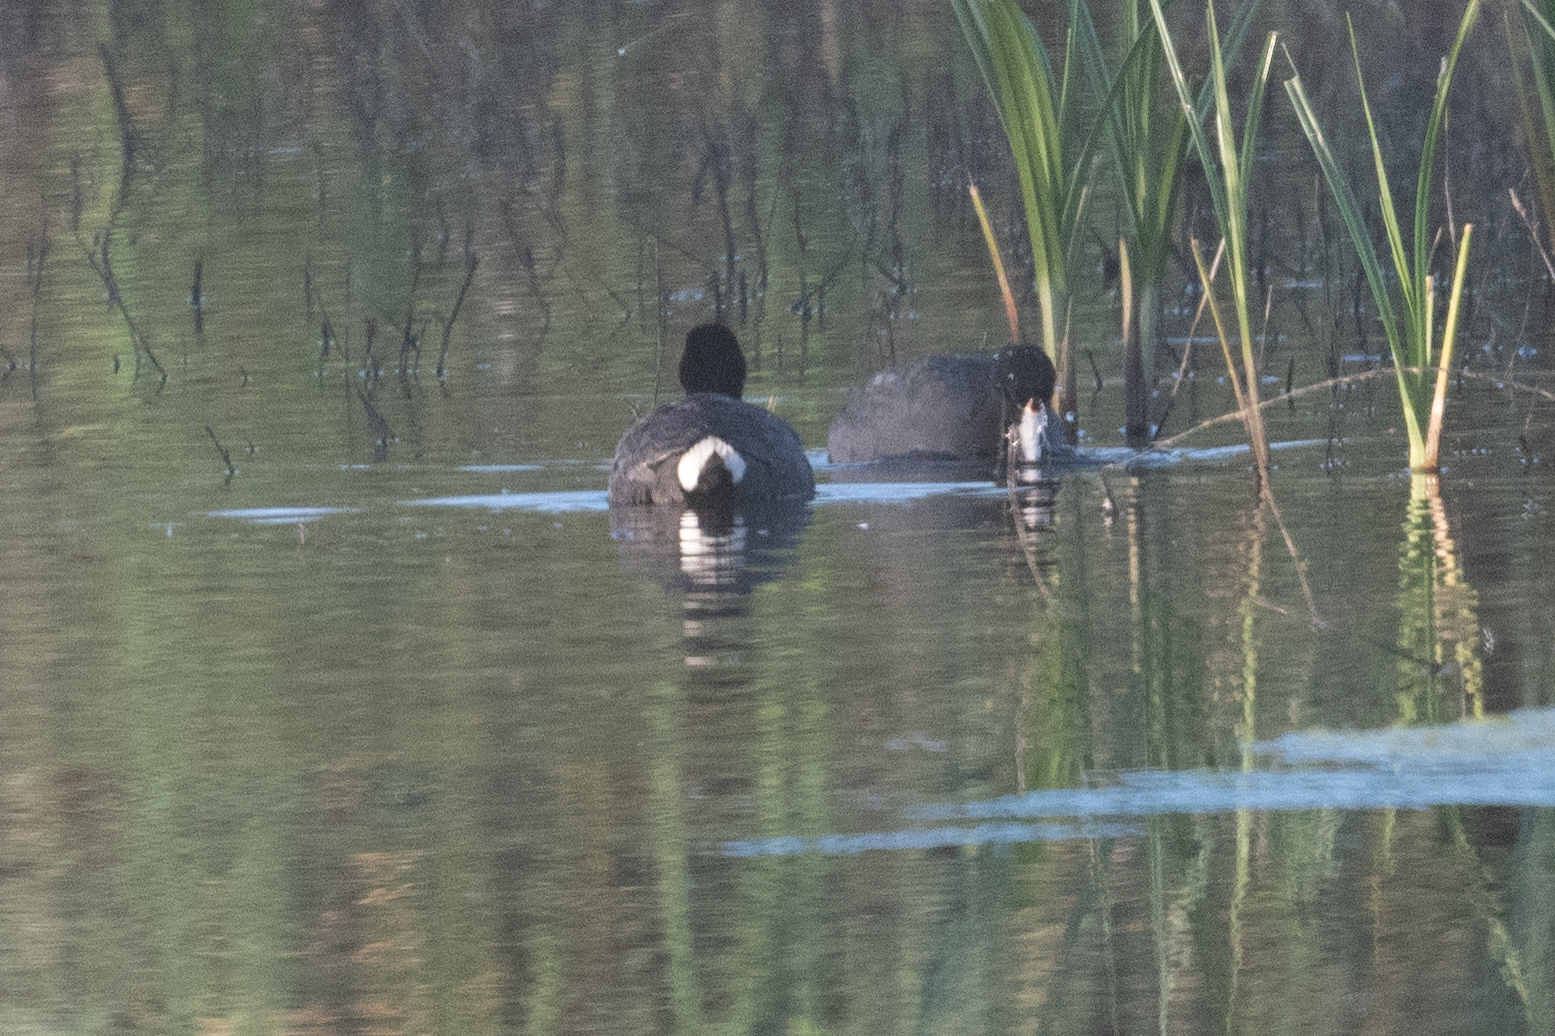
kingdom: Animalia
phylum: Chordata
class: Aves
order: Gruiformes
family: Rallidae
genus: Fulica
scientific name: Fulica americana
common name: American coot
